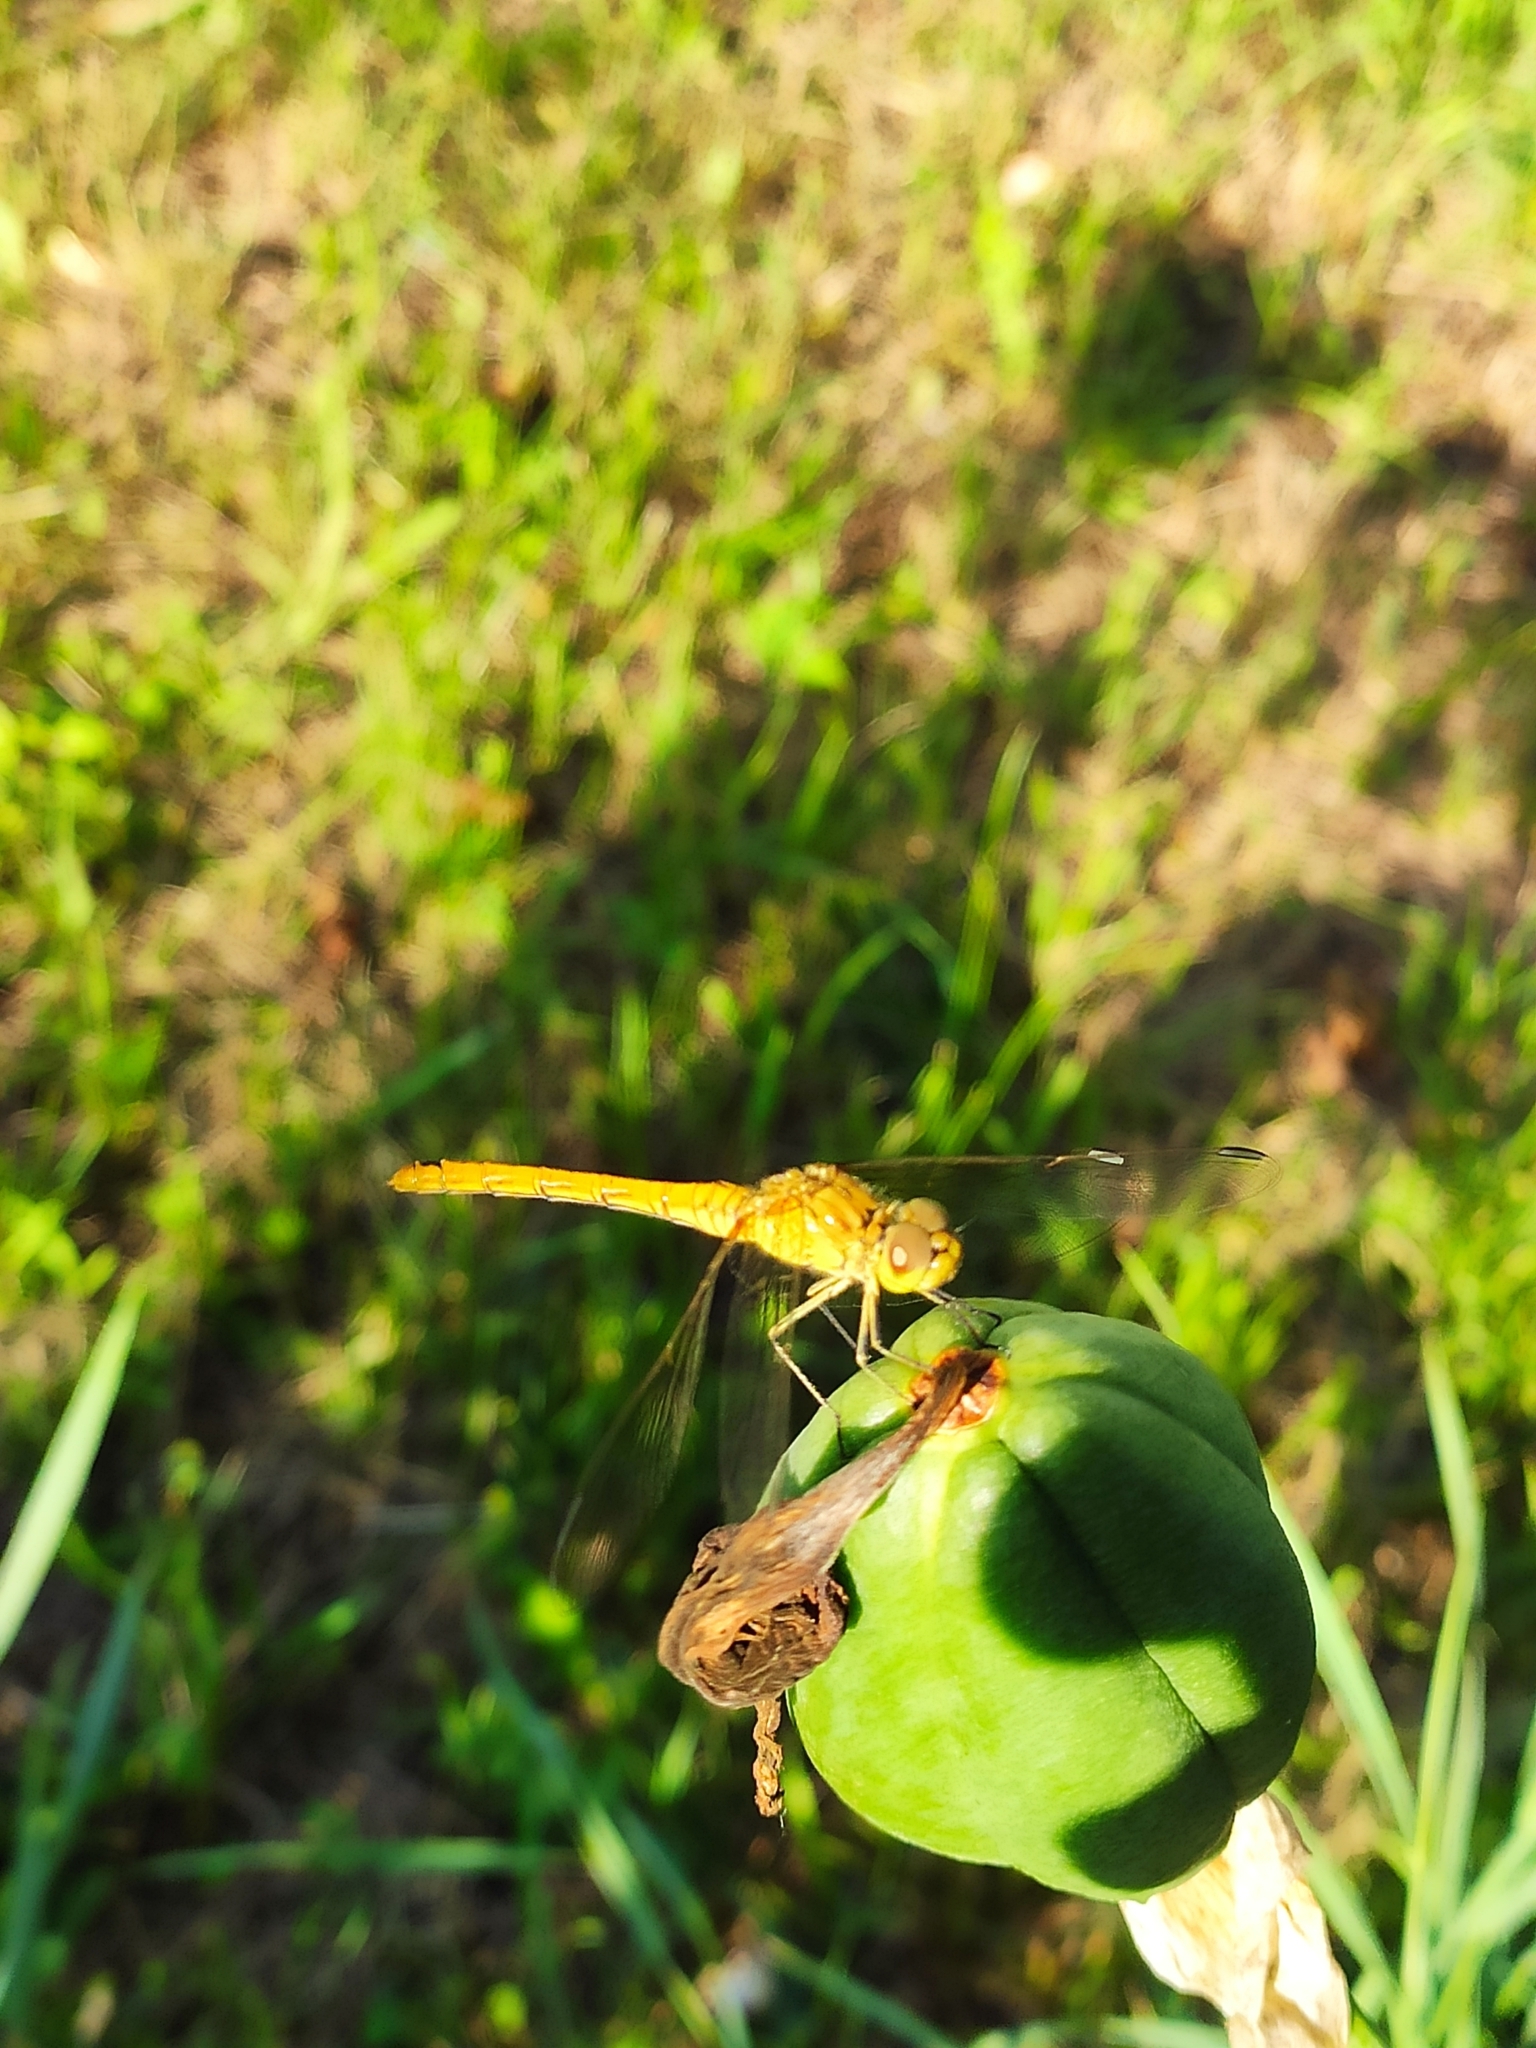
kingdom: Animalia
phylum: Arthropoda
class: Insecta
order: Odonata
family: Libellulidae
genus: Sympetrum
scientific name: Sympetrum meridionale
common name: Southern darter
